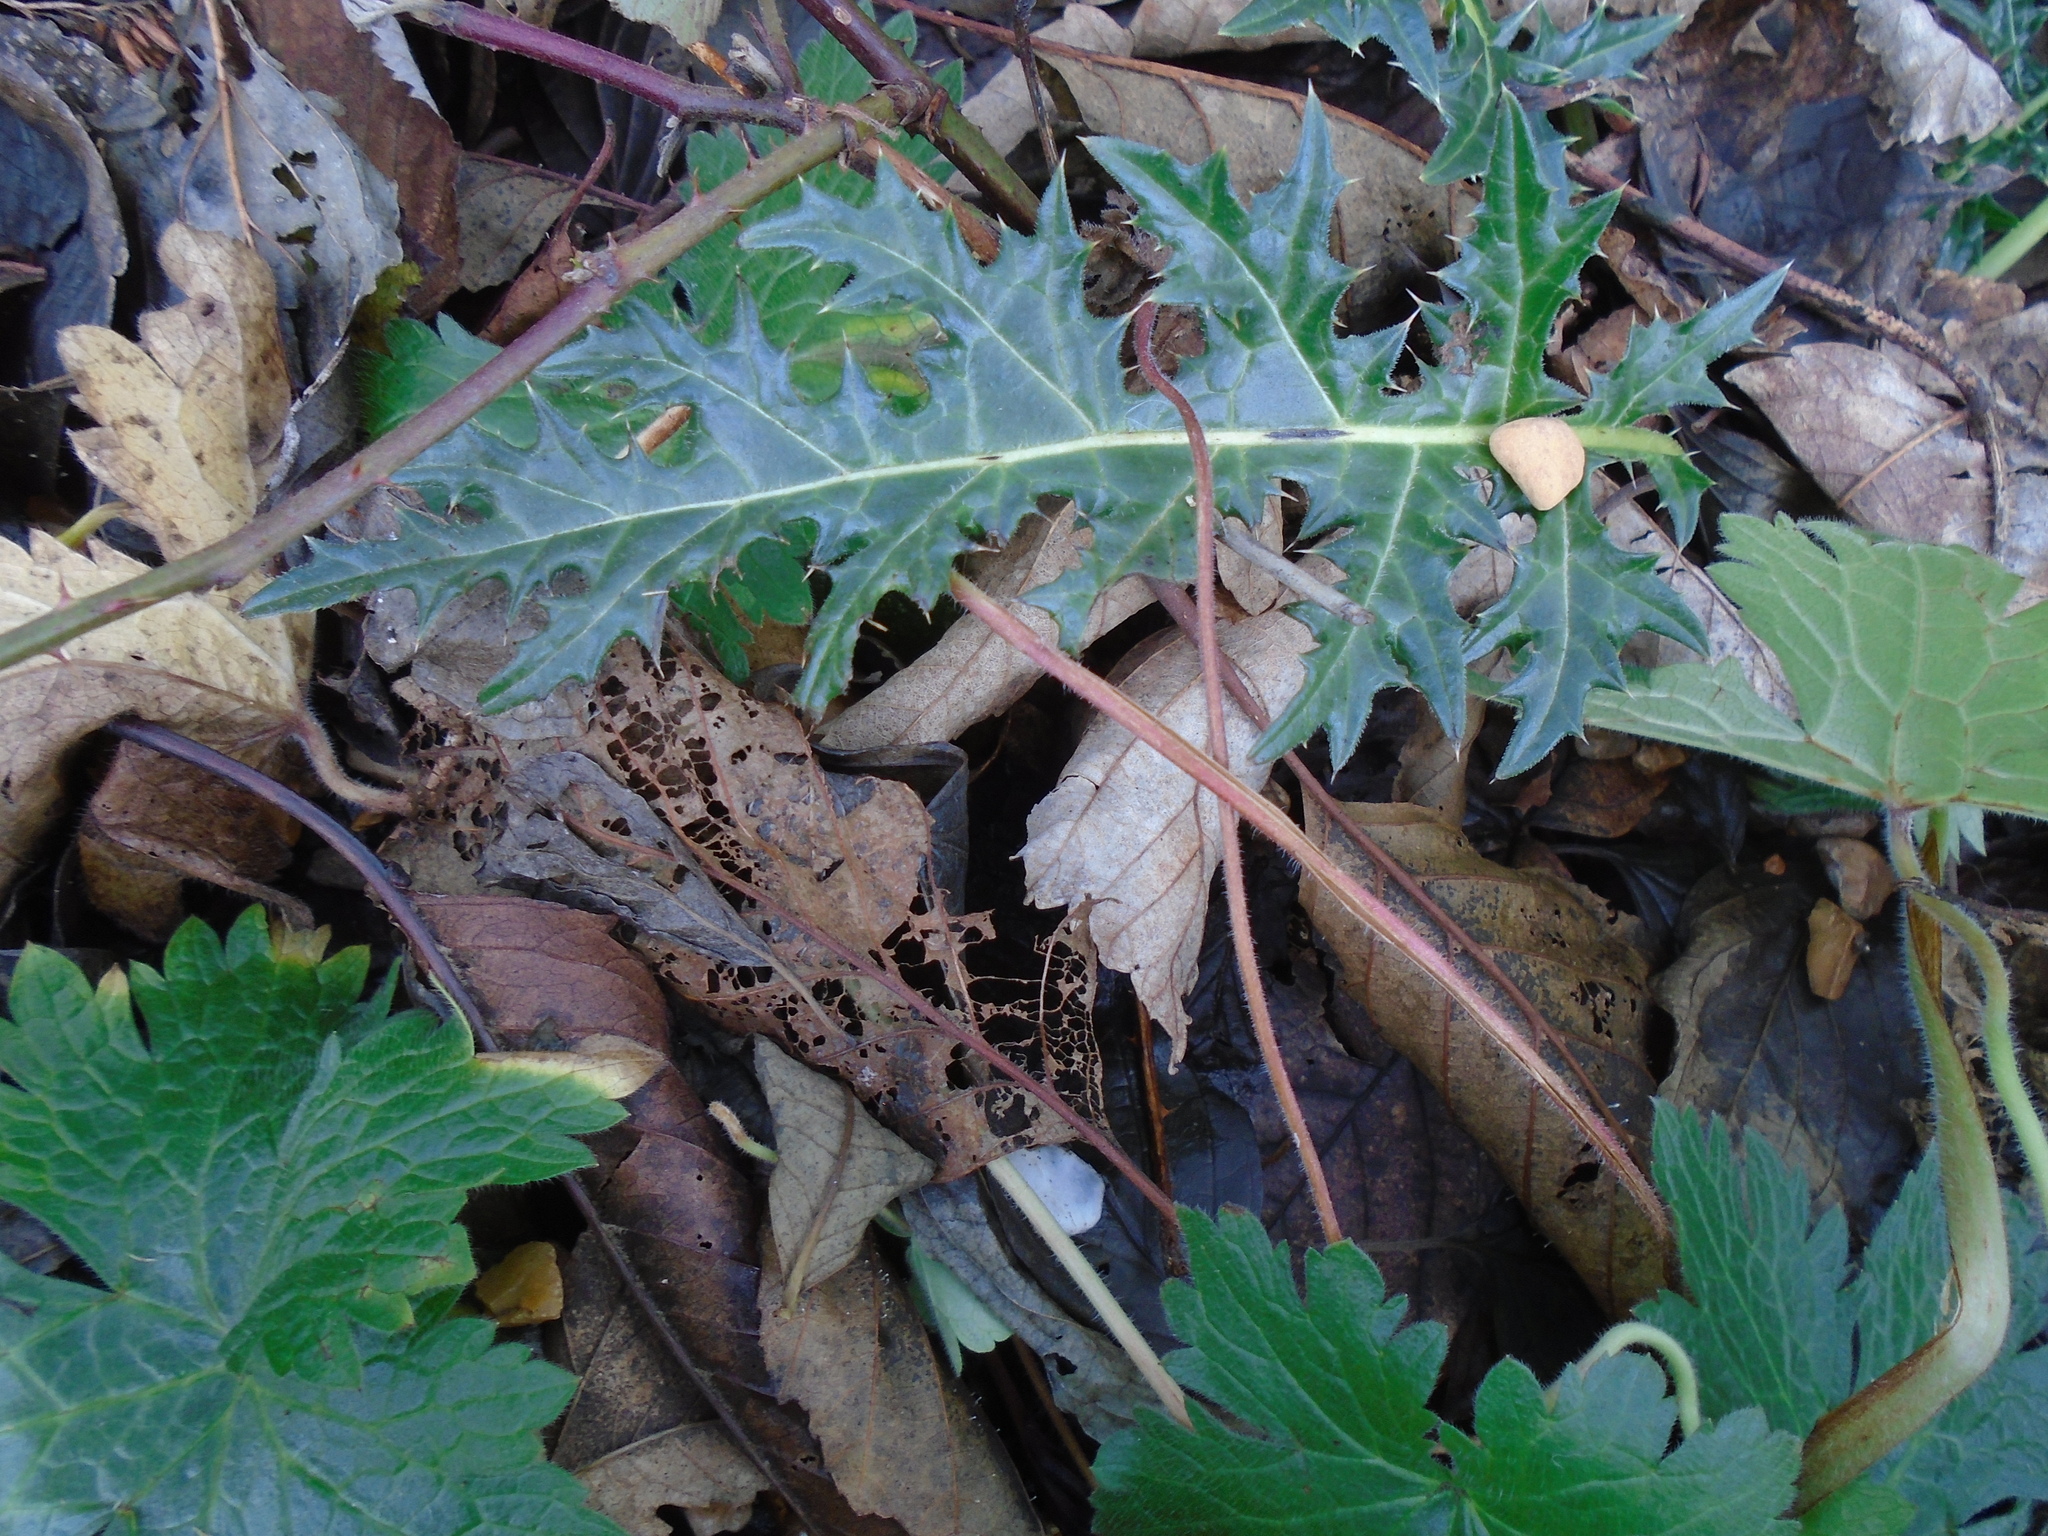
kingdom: Plantae
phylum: Tracheophyta
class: Magnoliopsida
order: Lamiales
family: Acanthaceae
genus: Acanthus
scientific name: Acanthus spinosus
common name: Spiny bear's-breech
